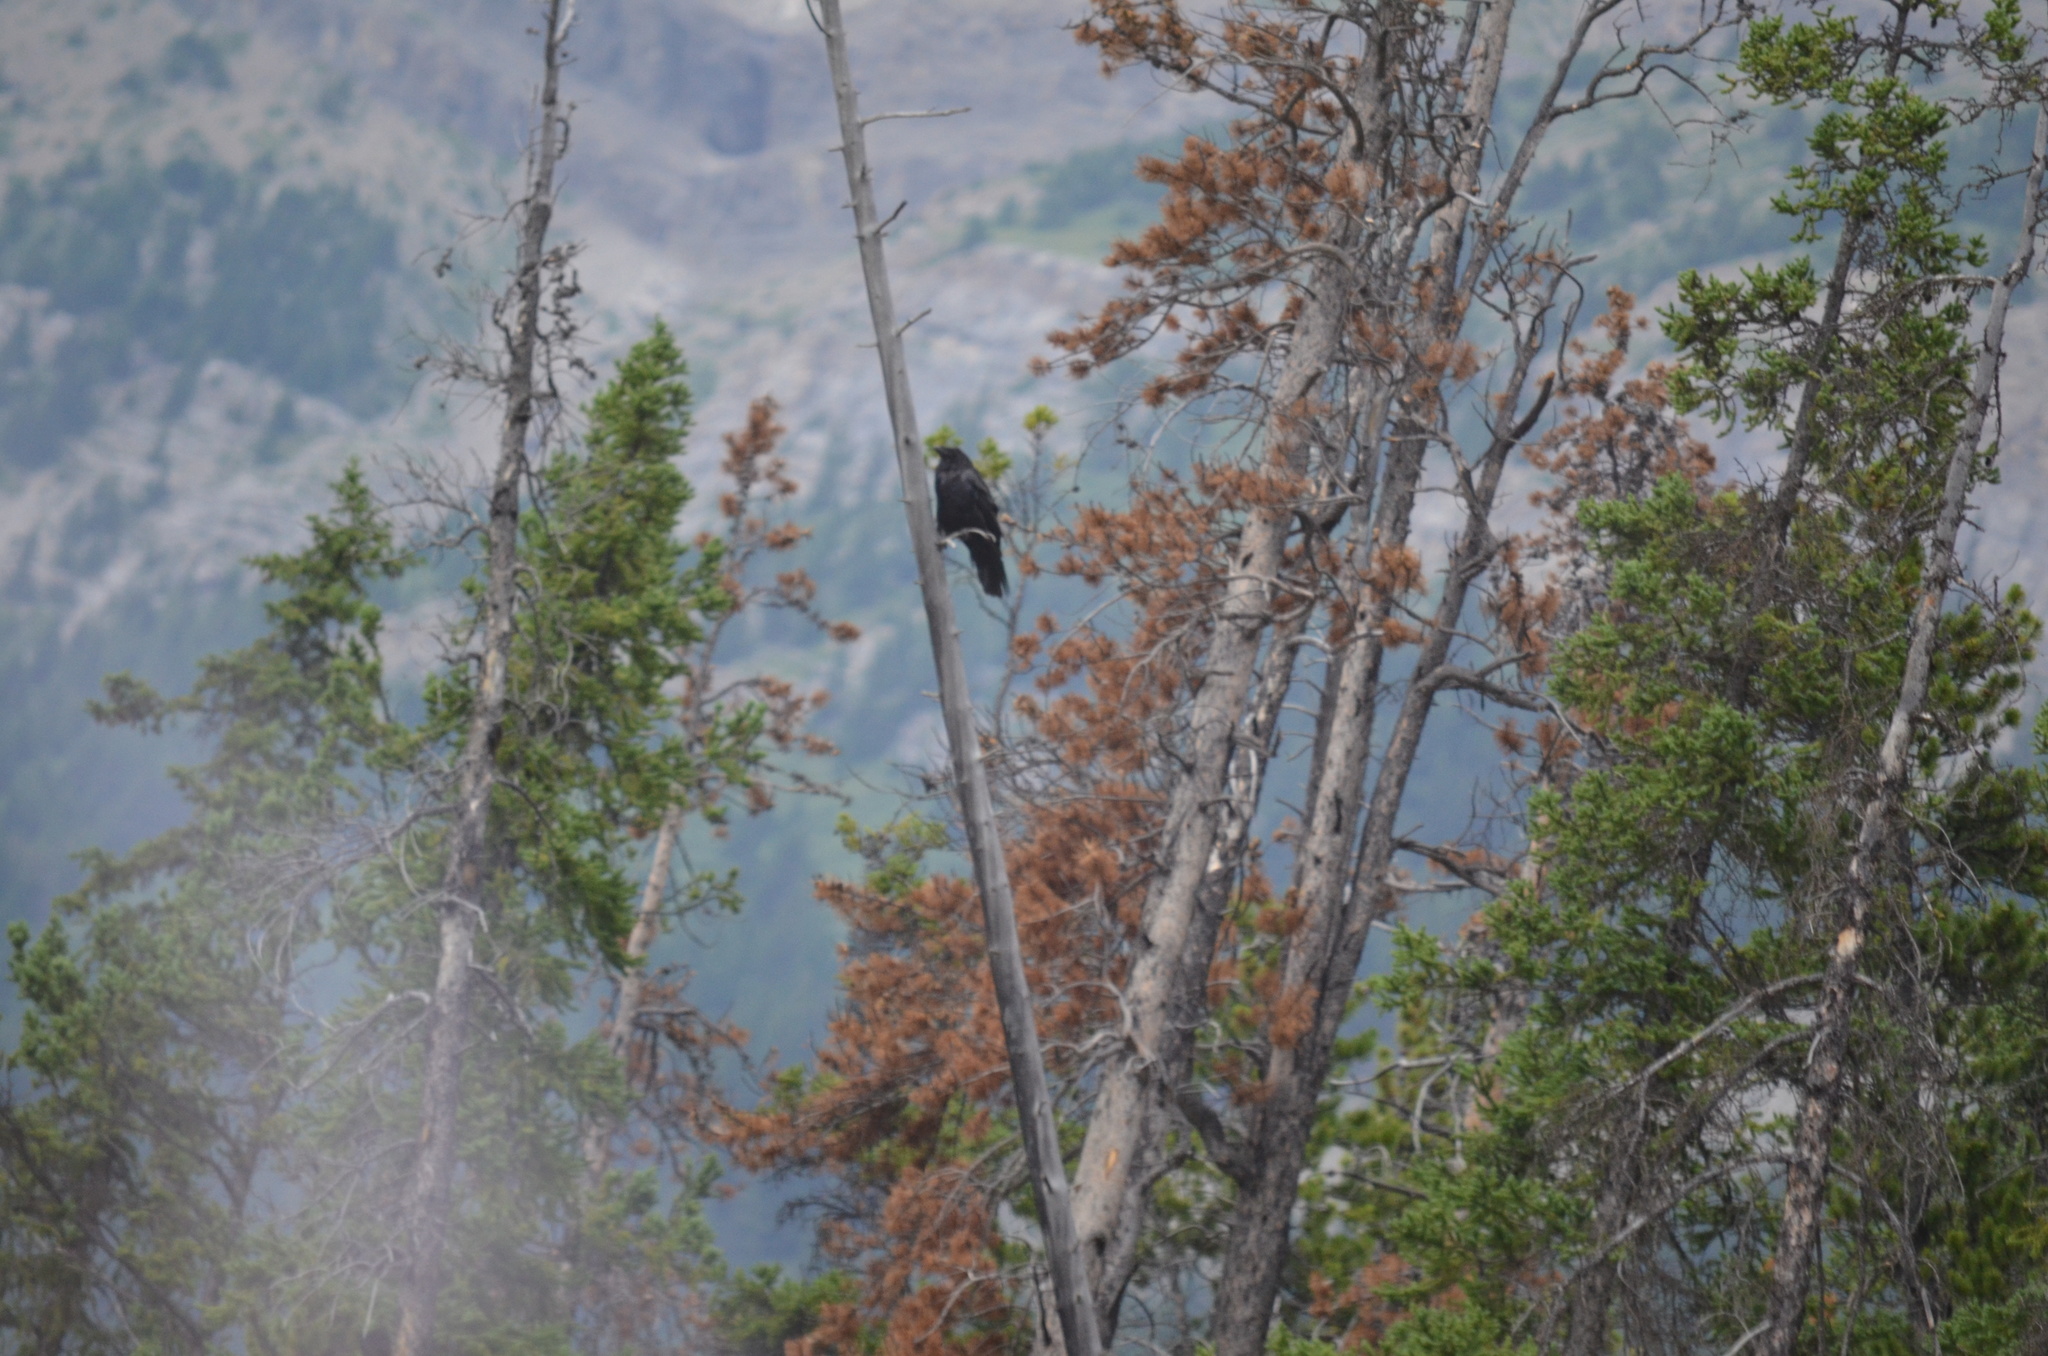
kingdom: Animalia
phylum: Chordata
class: Aves
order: Passeriformes
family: Corvidae
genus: Corvus
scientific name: Corvus corax
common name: Common raven
